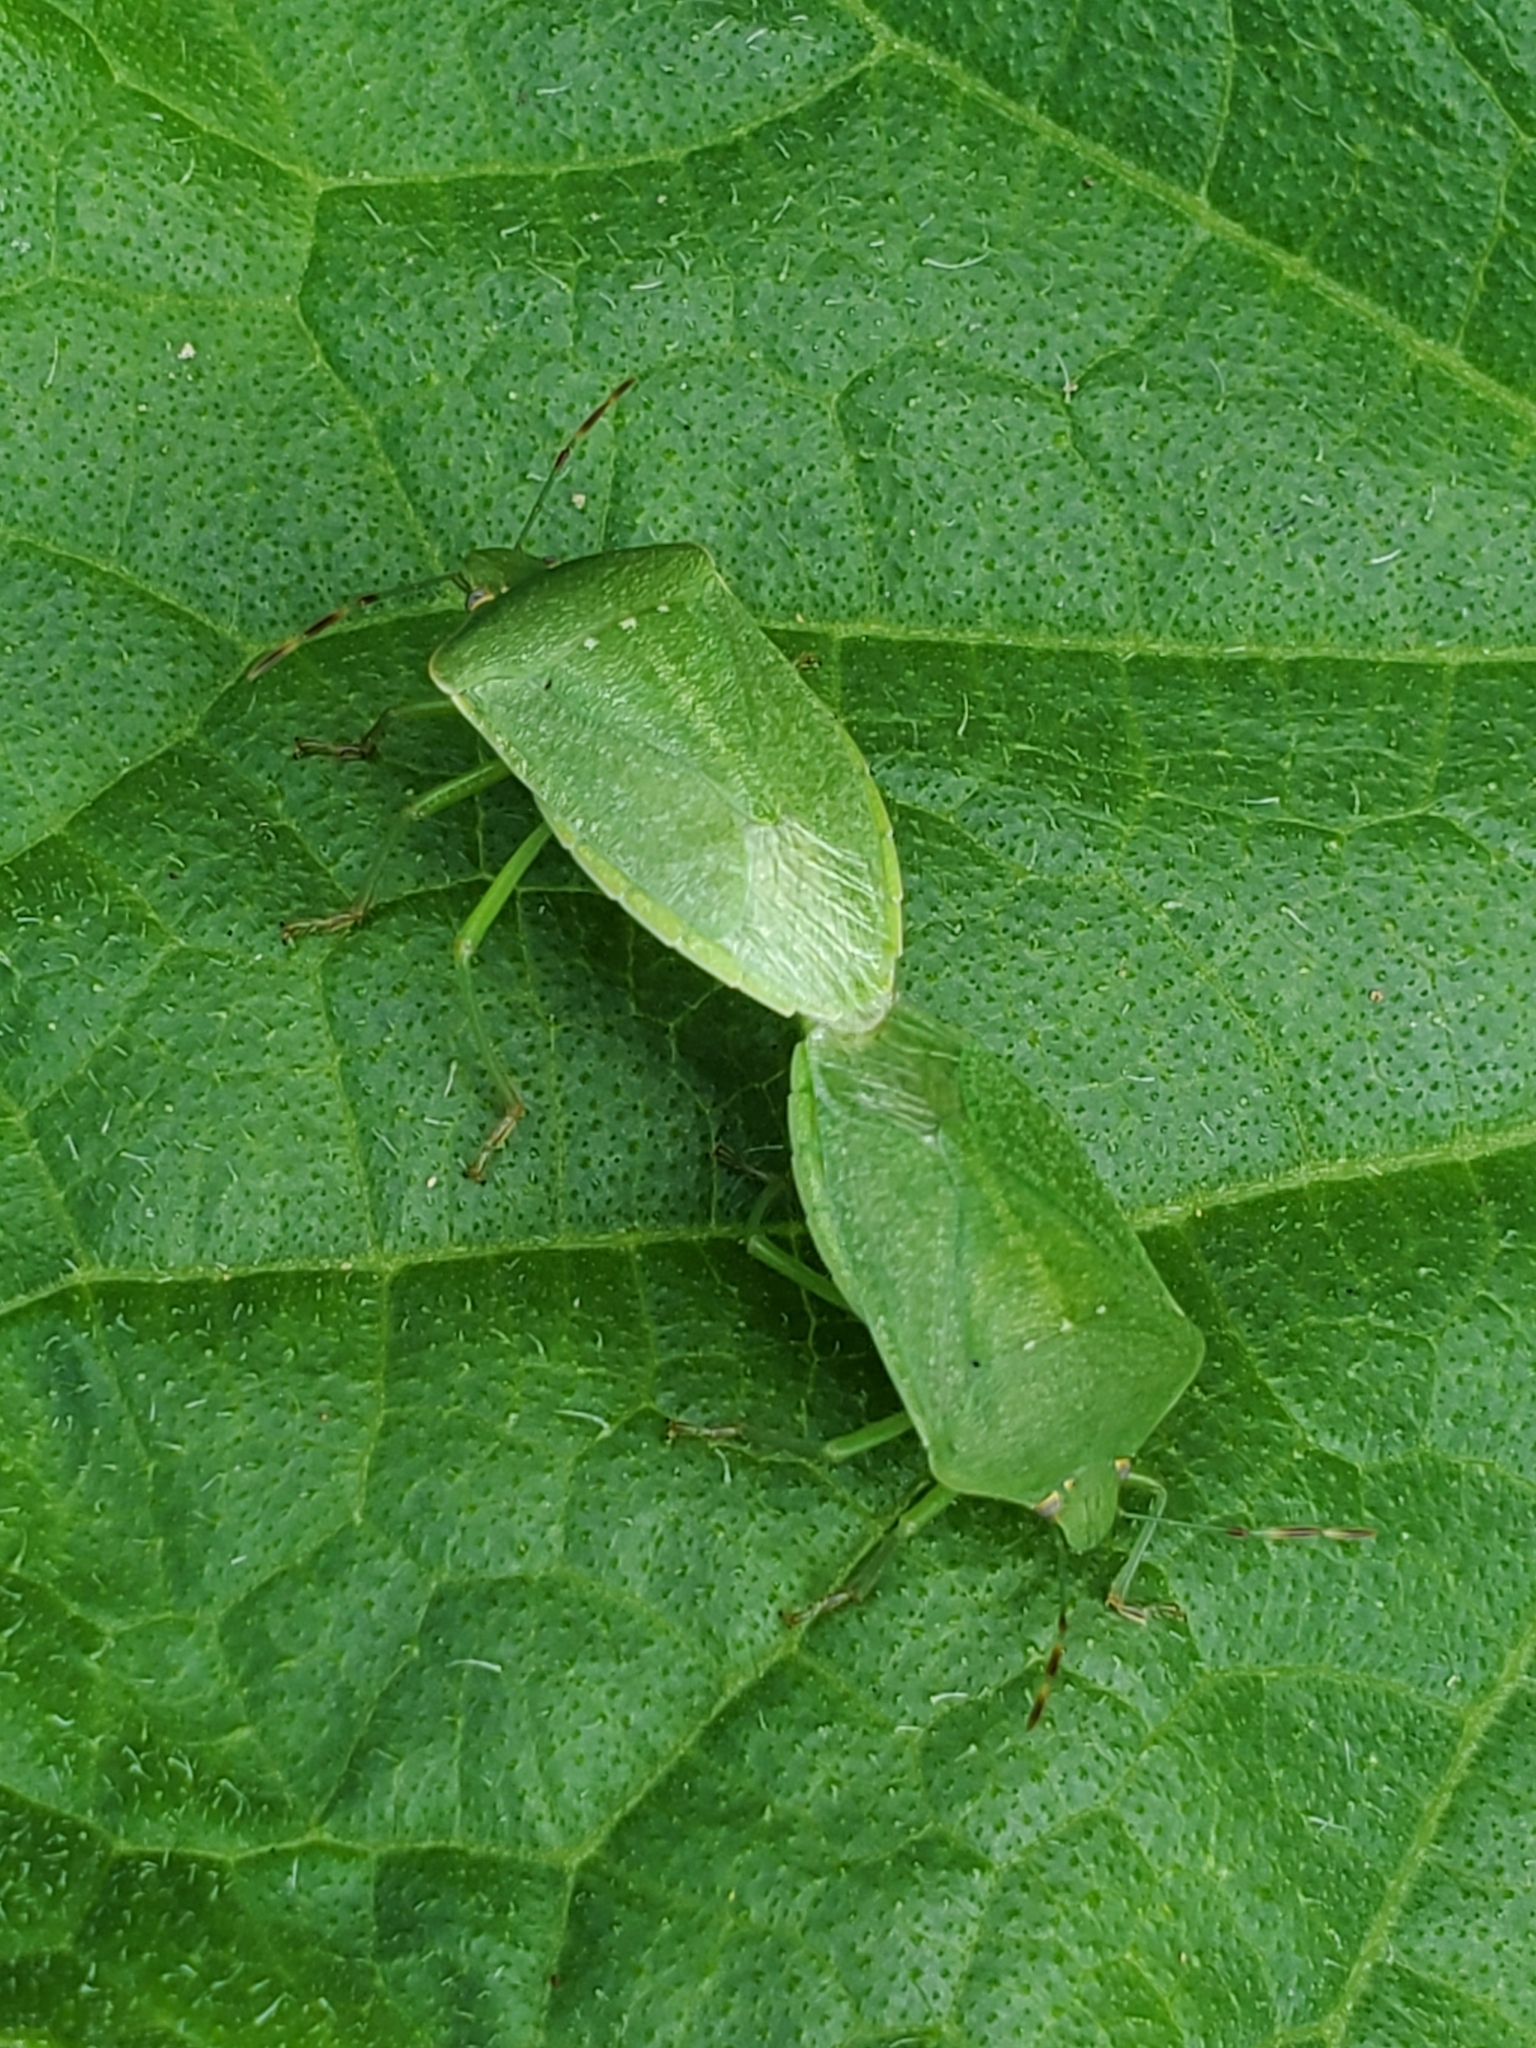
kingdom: Animalia
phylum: Arthropoda
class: Insecta
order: Hemiptera
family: Pentatomidae
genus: Nezara
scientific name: Nezara viridula
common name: Southern green stink bug
